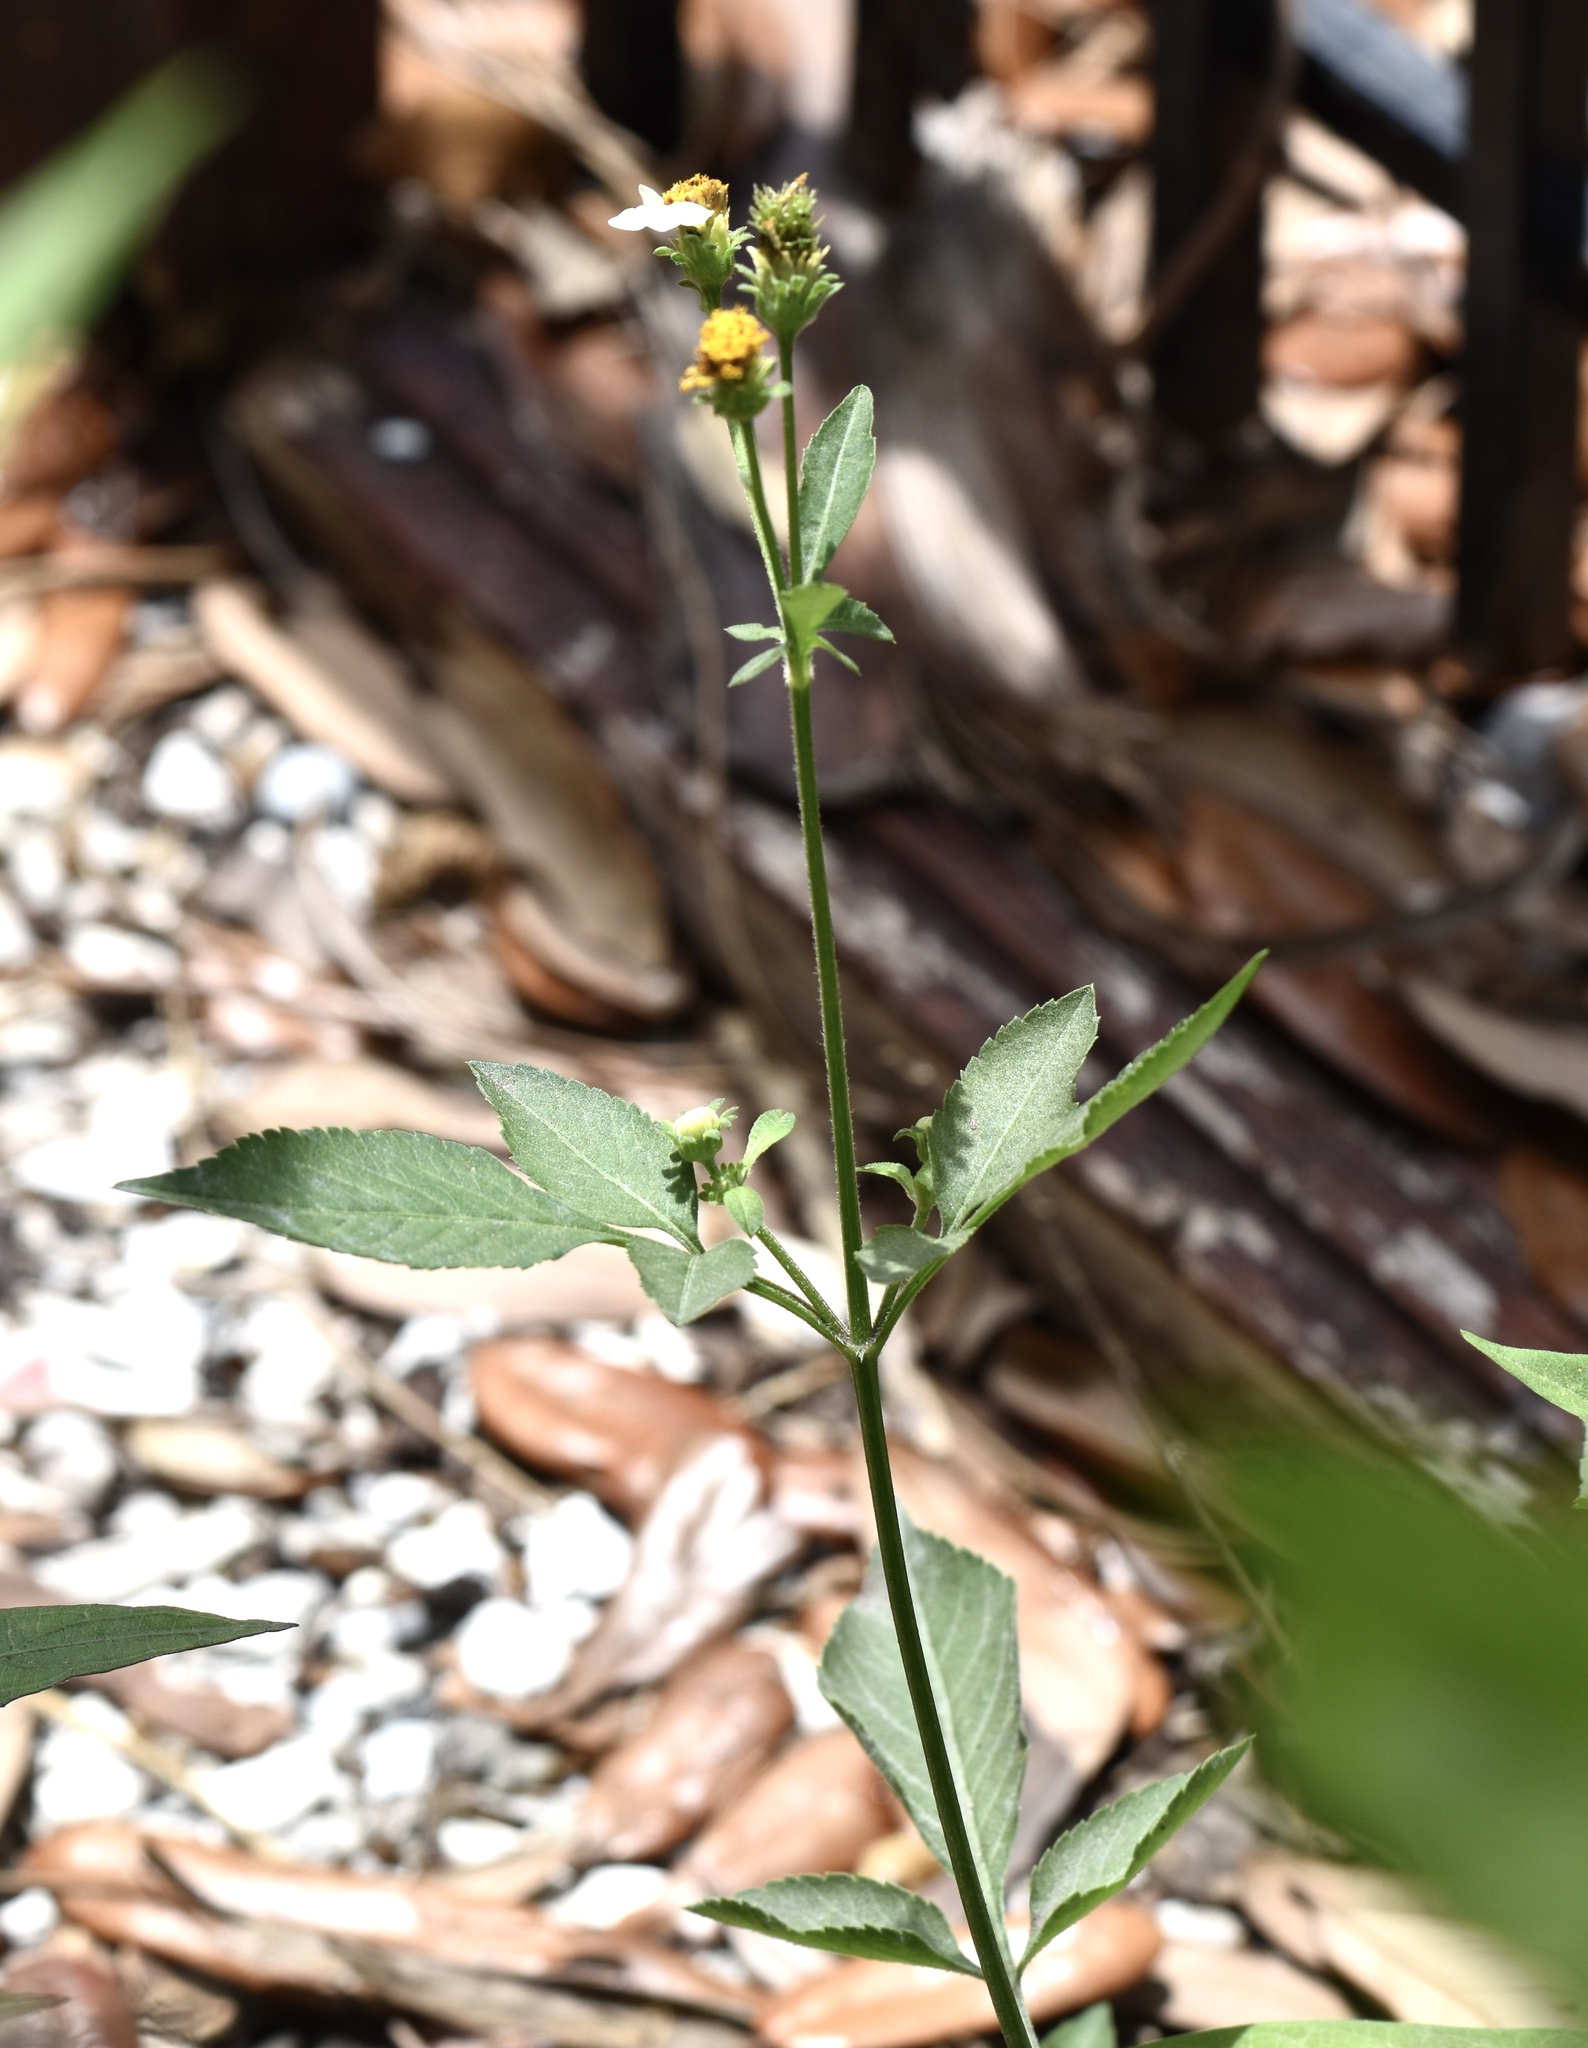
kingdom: Plantae
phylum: Tracheophyta
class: Magnoliopsida
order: Asterales
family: Asteraceae
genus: Bidens
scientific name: Bidens alba
